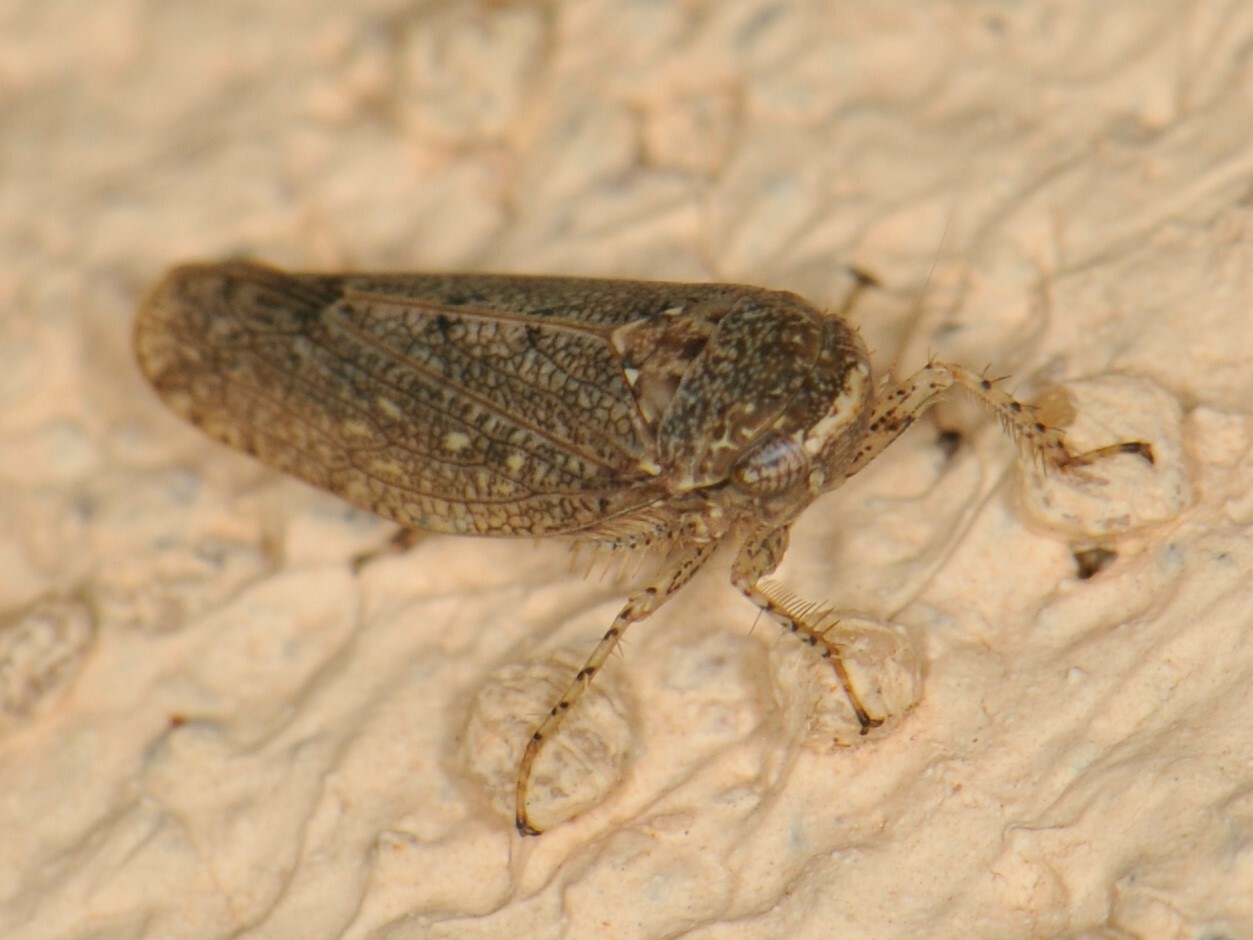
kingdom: Animalia
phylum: Arthropoda
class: Insecta
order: Hemiptera
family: Cicadellidae
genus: Texananus
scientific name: Texananus
